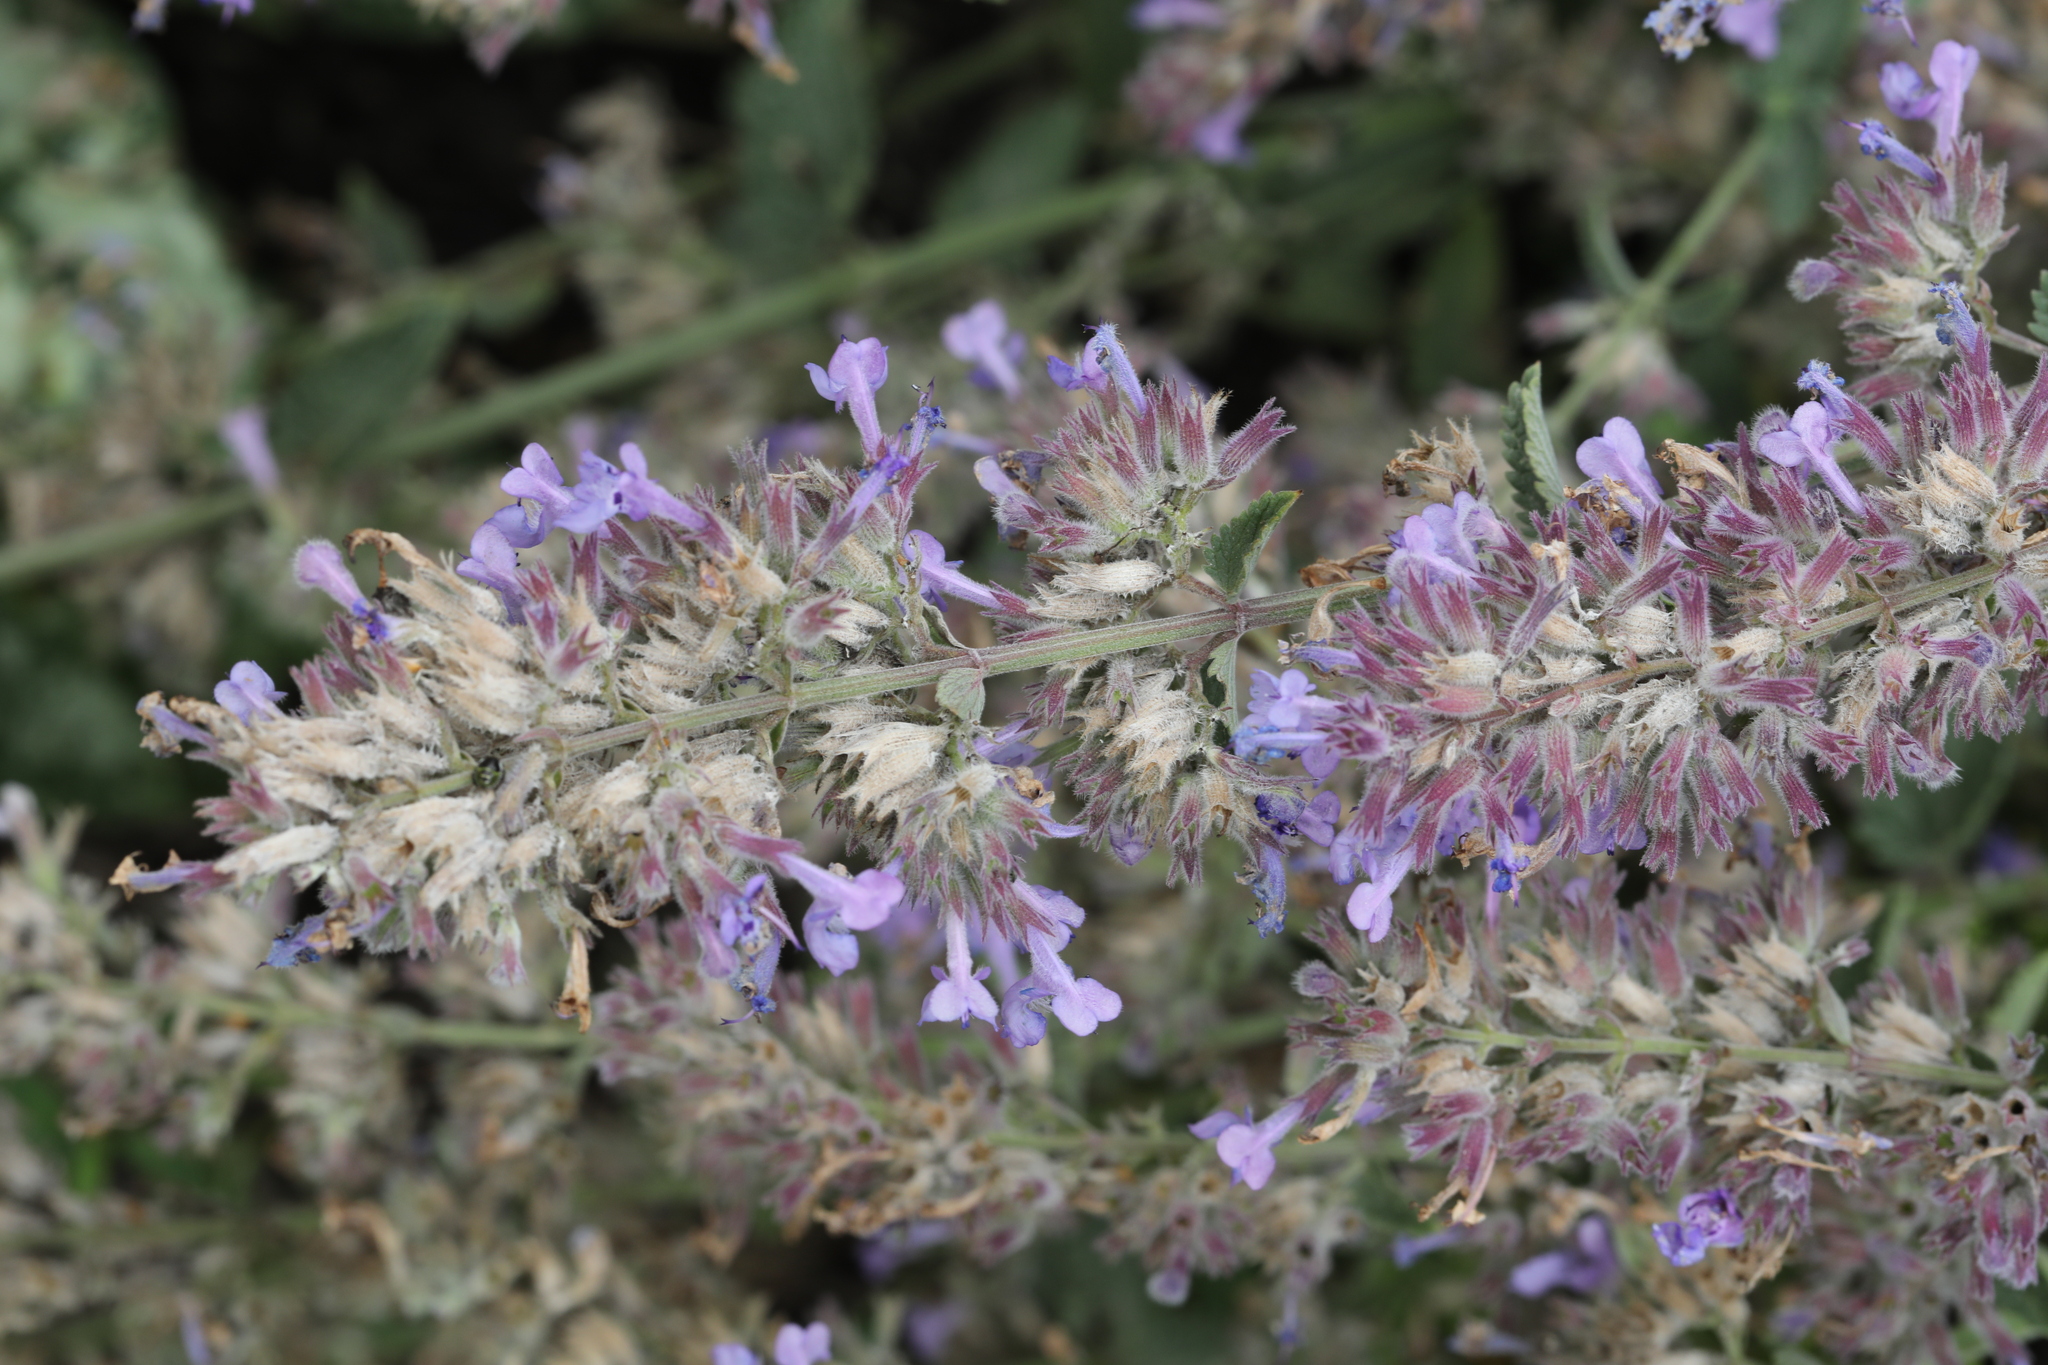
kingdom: Plantae
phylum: Tracheophyta
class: Magnoliopsida
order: Lamiales
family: Lamiaceae
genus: Nepeta
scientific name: Nepeta faassenii
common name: Catmint
